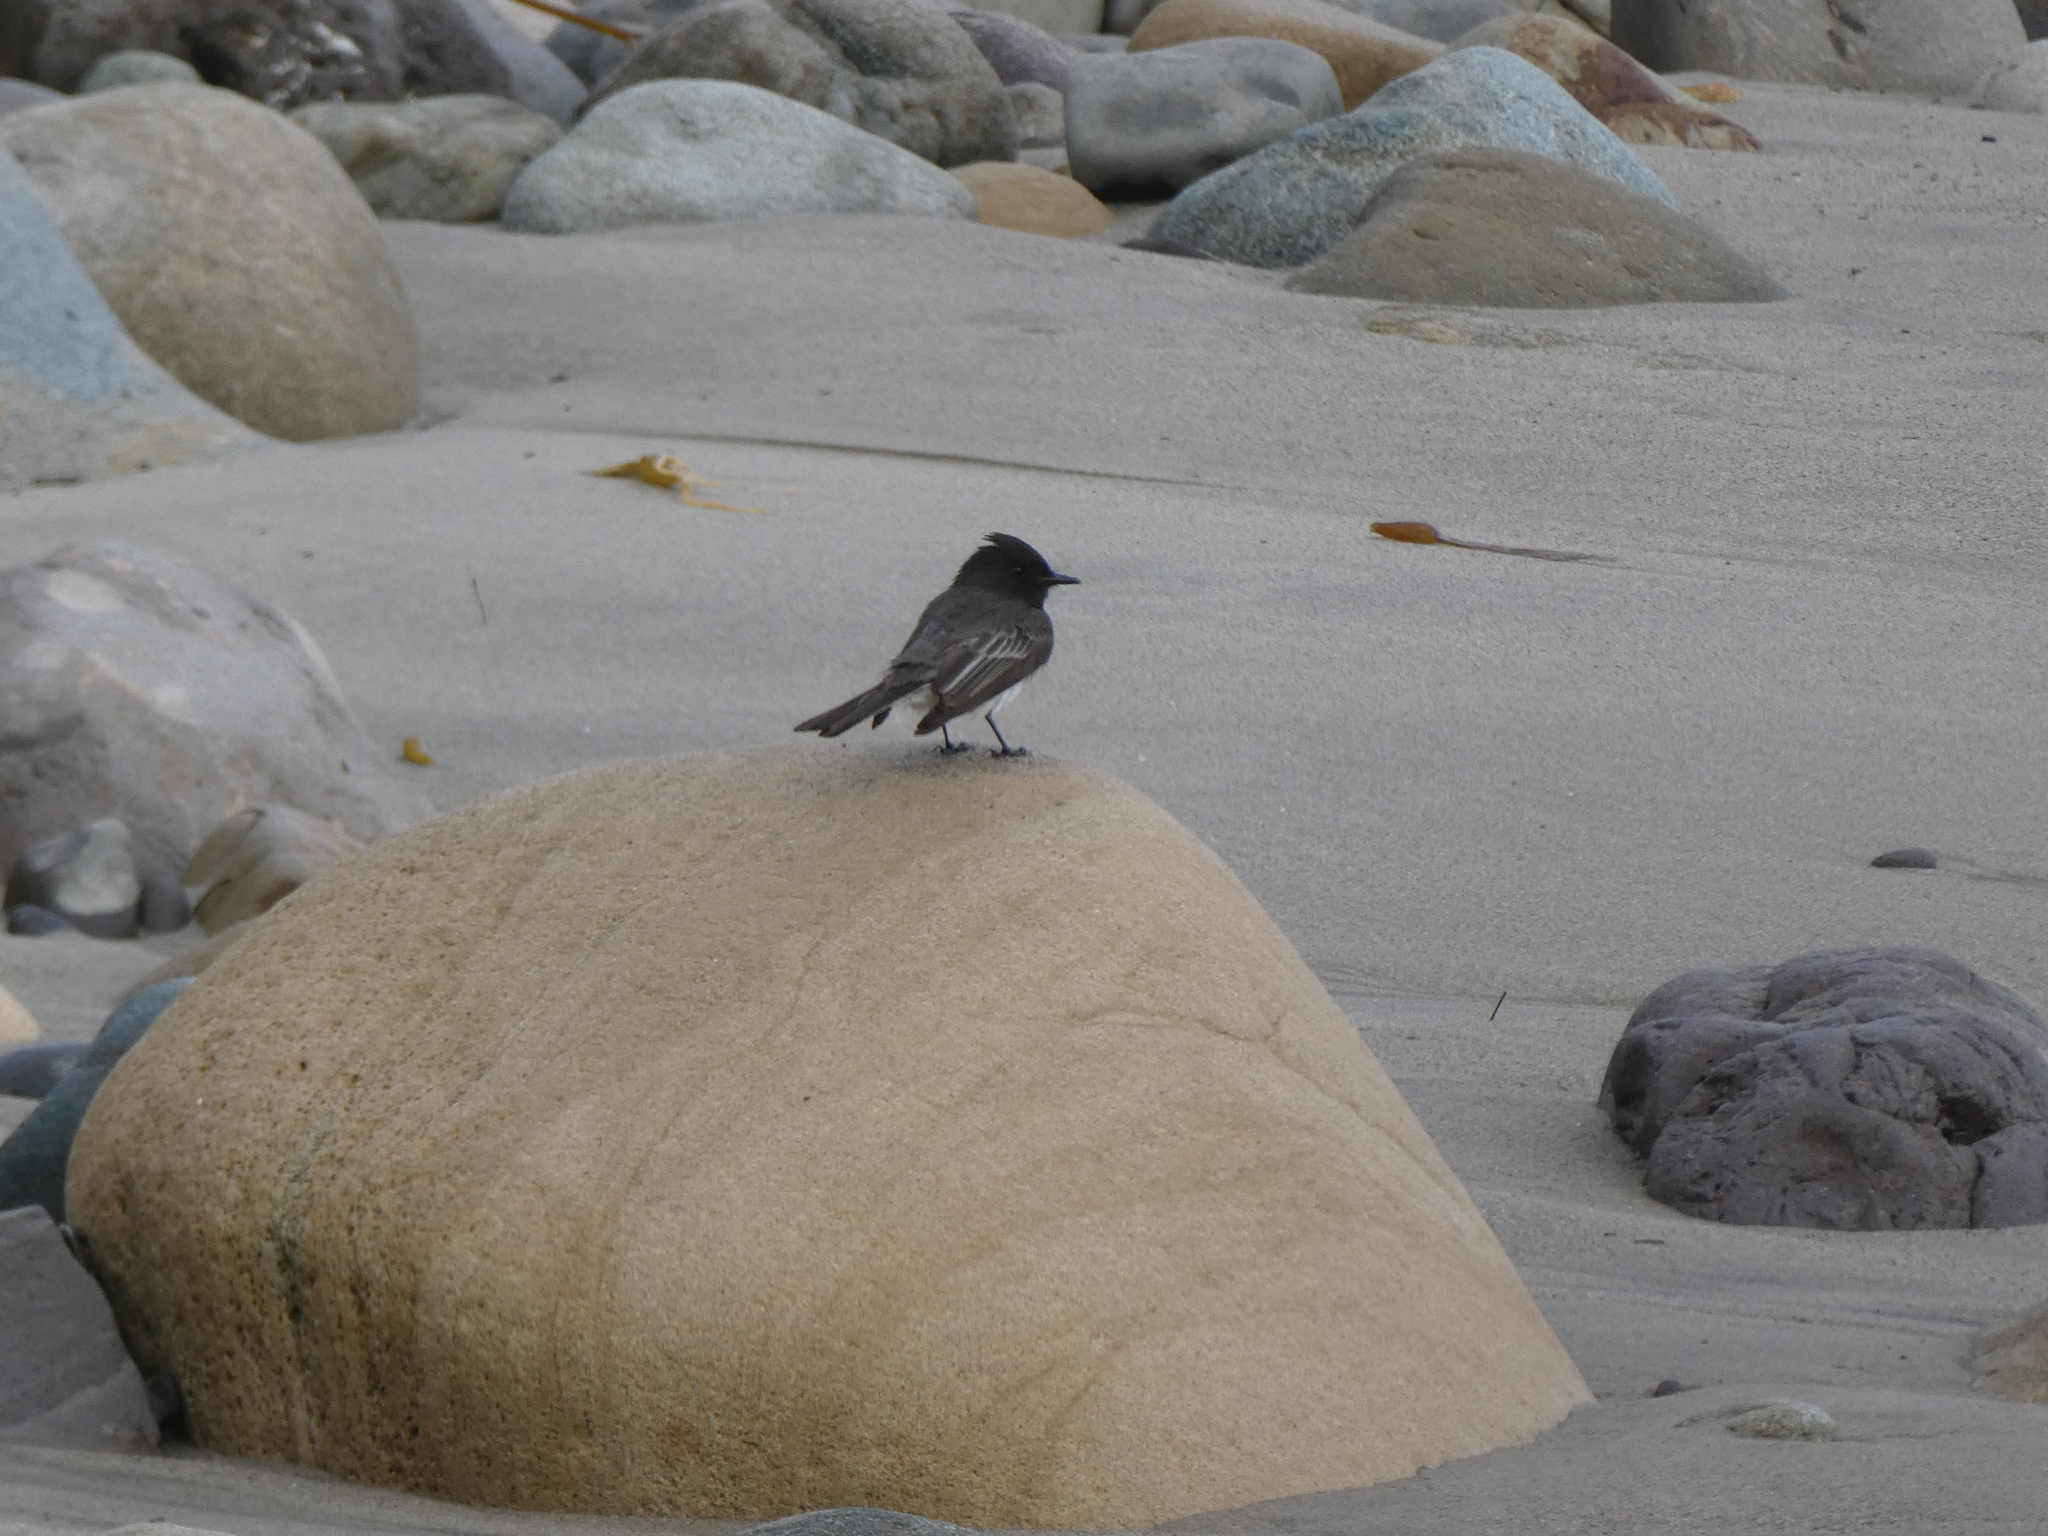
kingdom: Animalia
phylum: Chordata
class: Aves
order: Passeriformes
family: Tyrannidae
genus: Sayornis
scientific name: Sayornis nigricans
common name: Black phoebe
